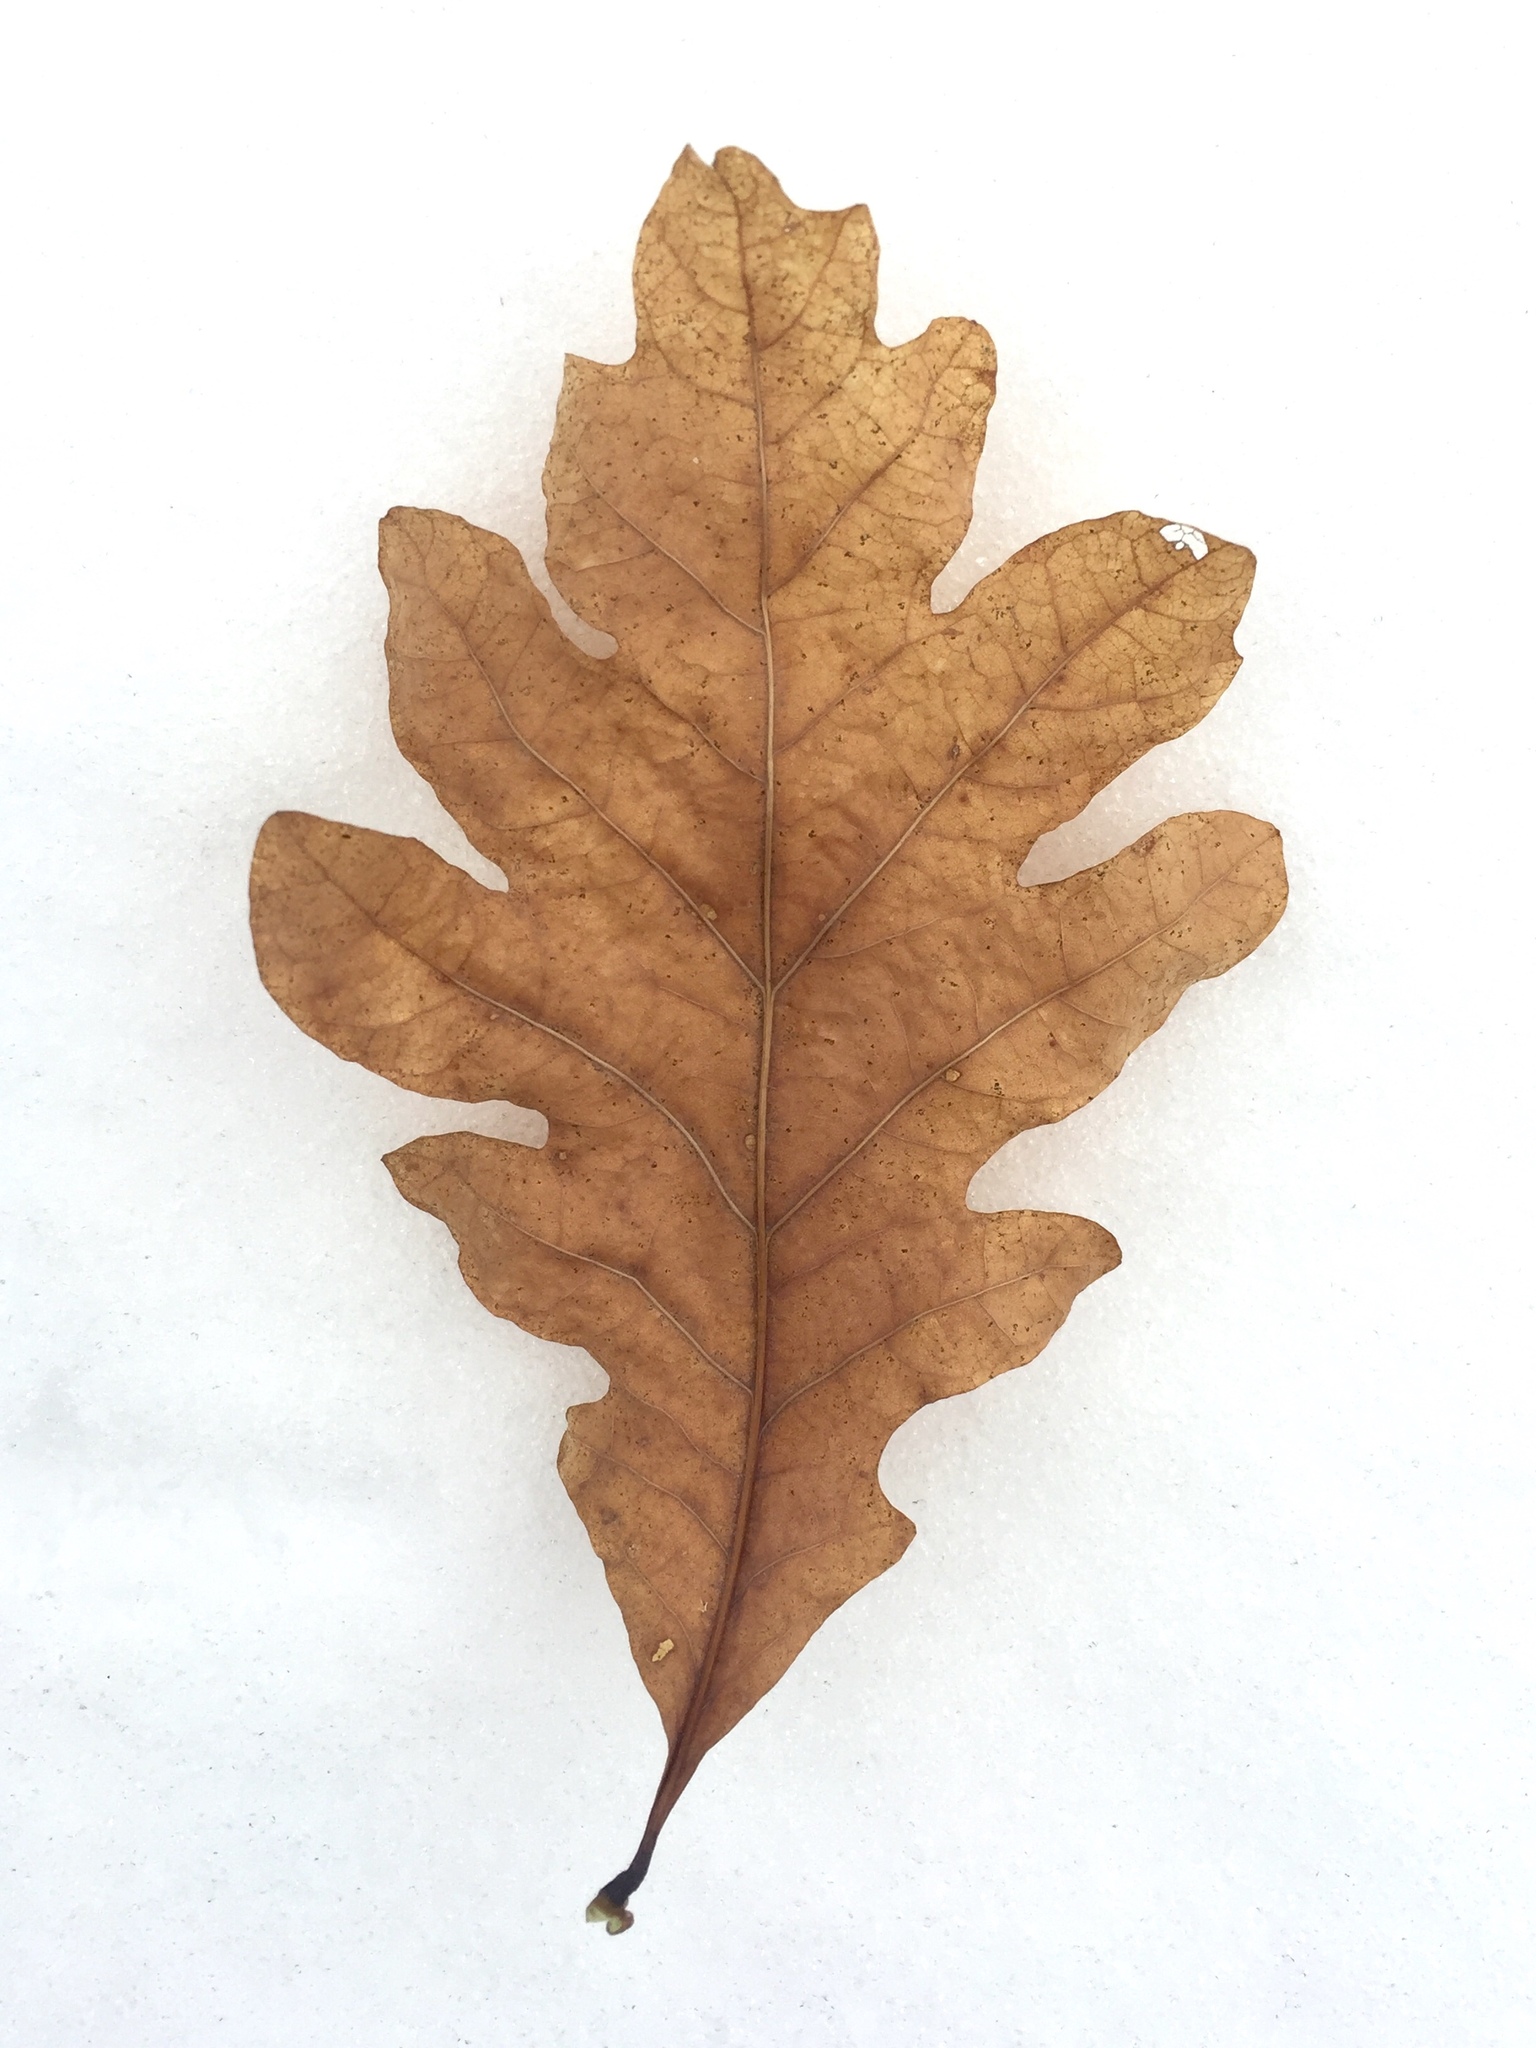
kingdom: Plantae
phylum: Tracheophyta
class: Magnoliopsida
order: Fagales
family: Fagaceae
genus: Quercus
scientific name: Quercus alba
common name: White oak
